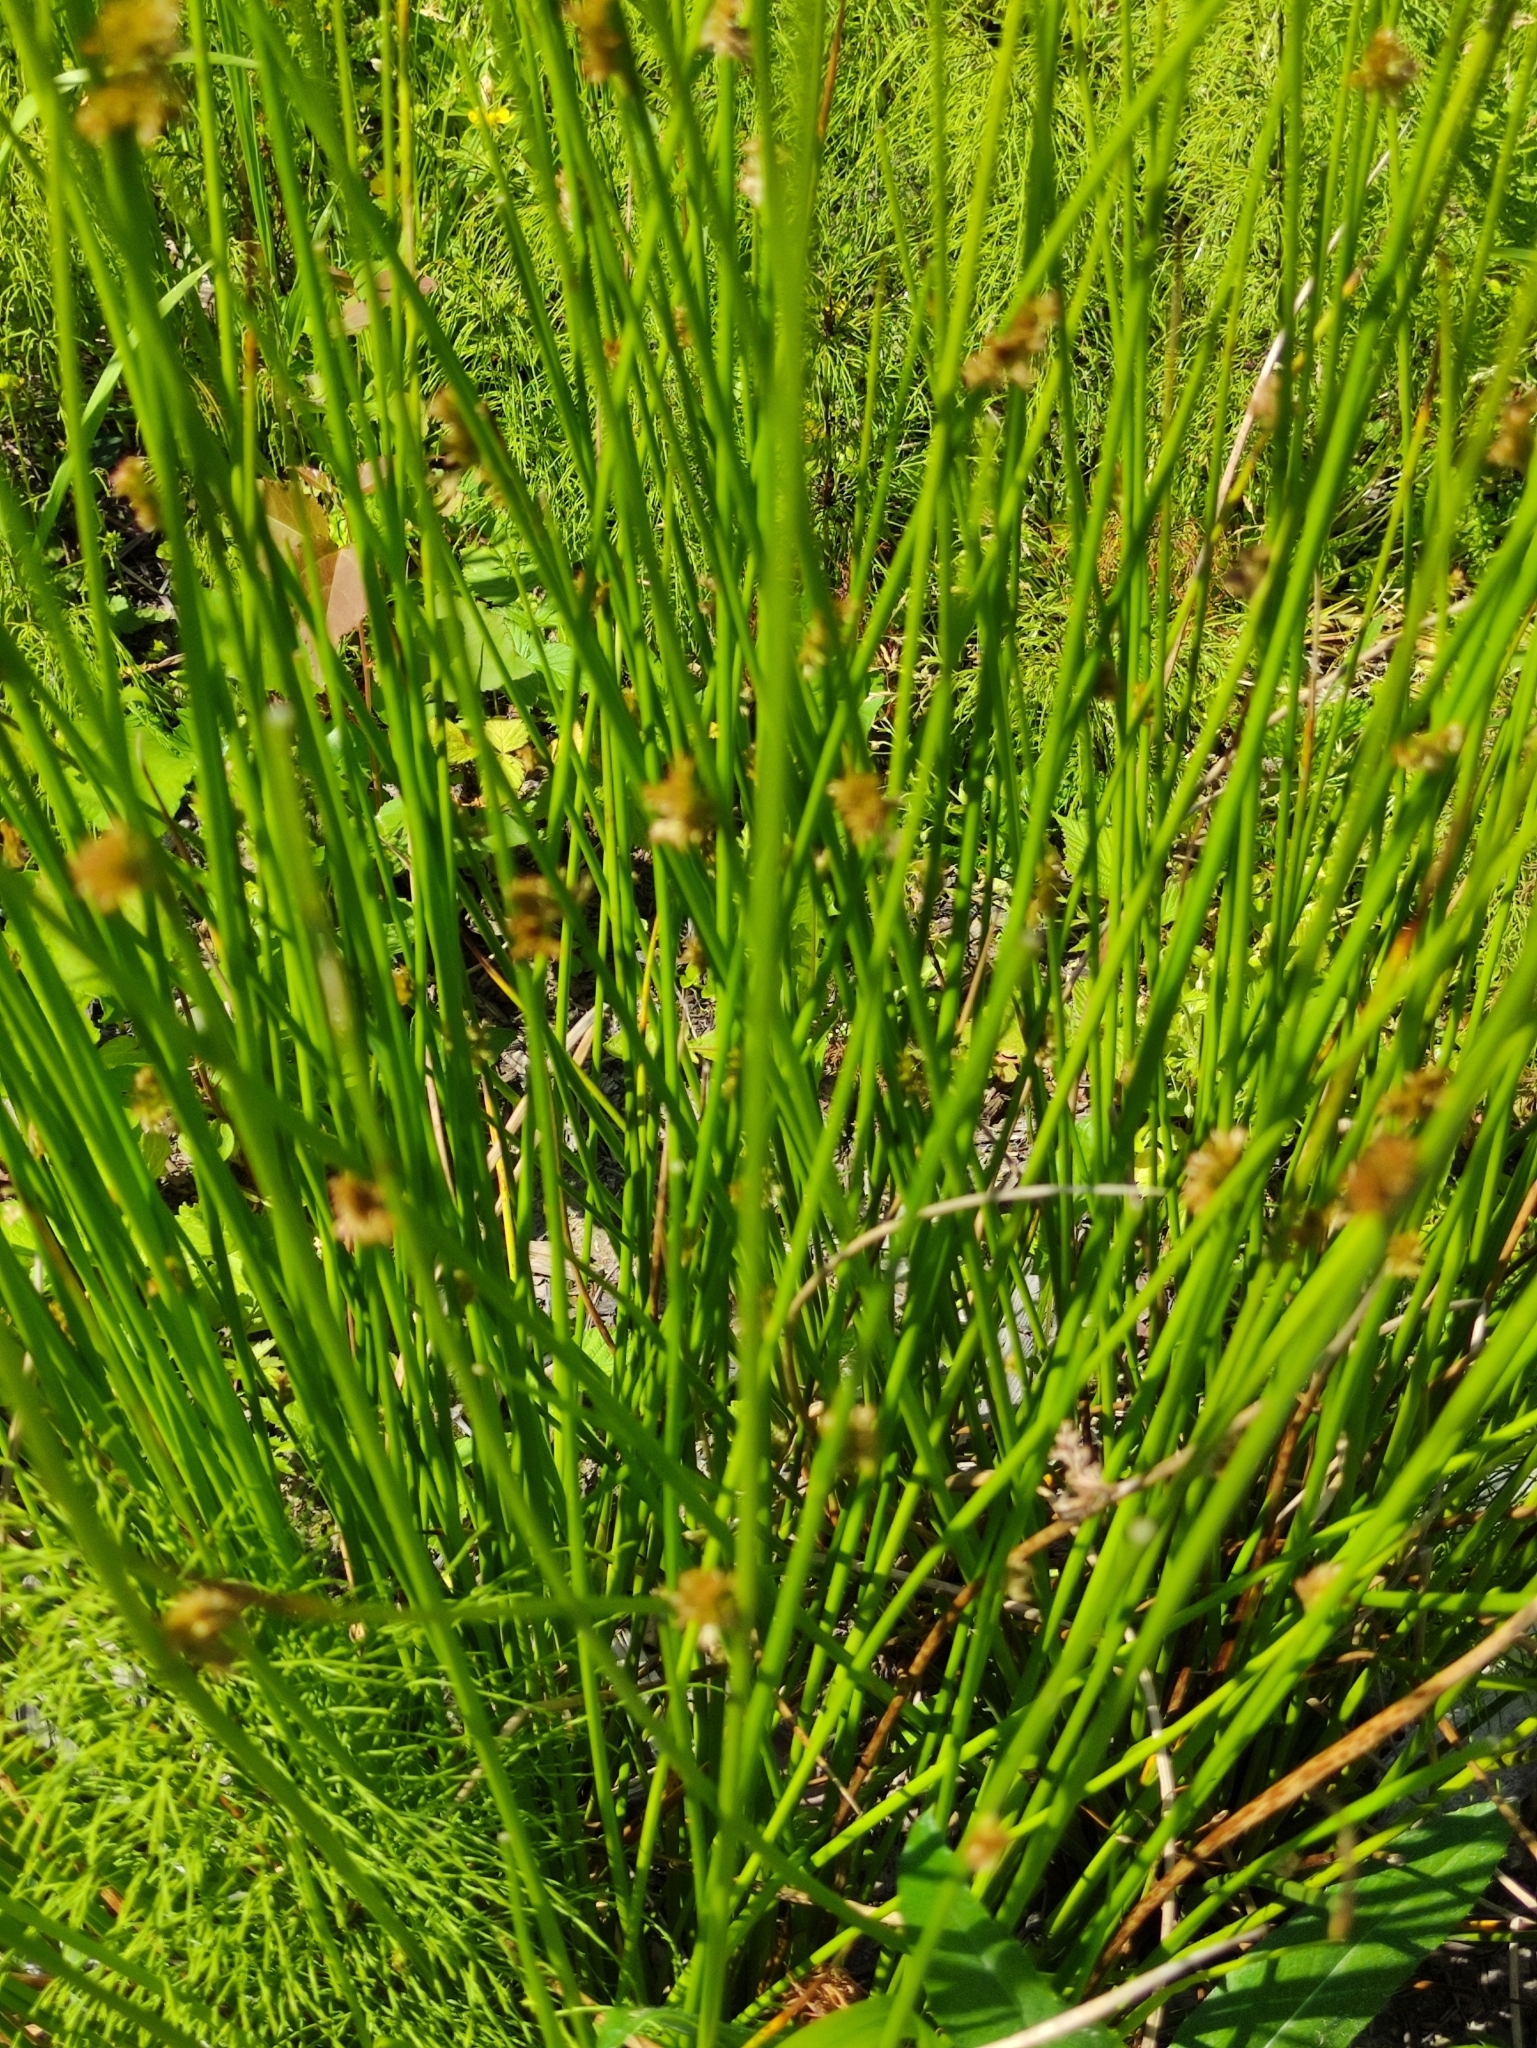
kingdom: Plantae
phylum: Tracheophyta
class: Liliopsida
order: Poales
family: Juncaceae
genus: Juncus
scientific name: Juncus effusus
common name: Soft rush
